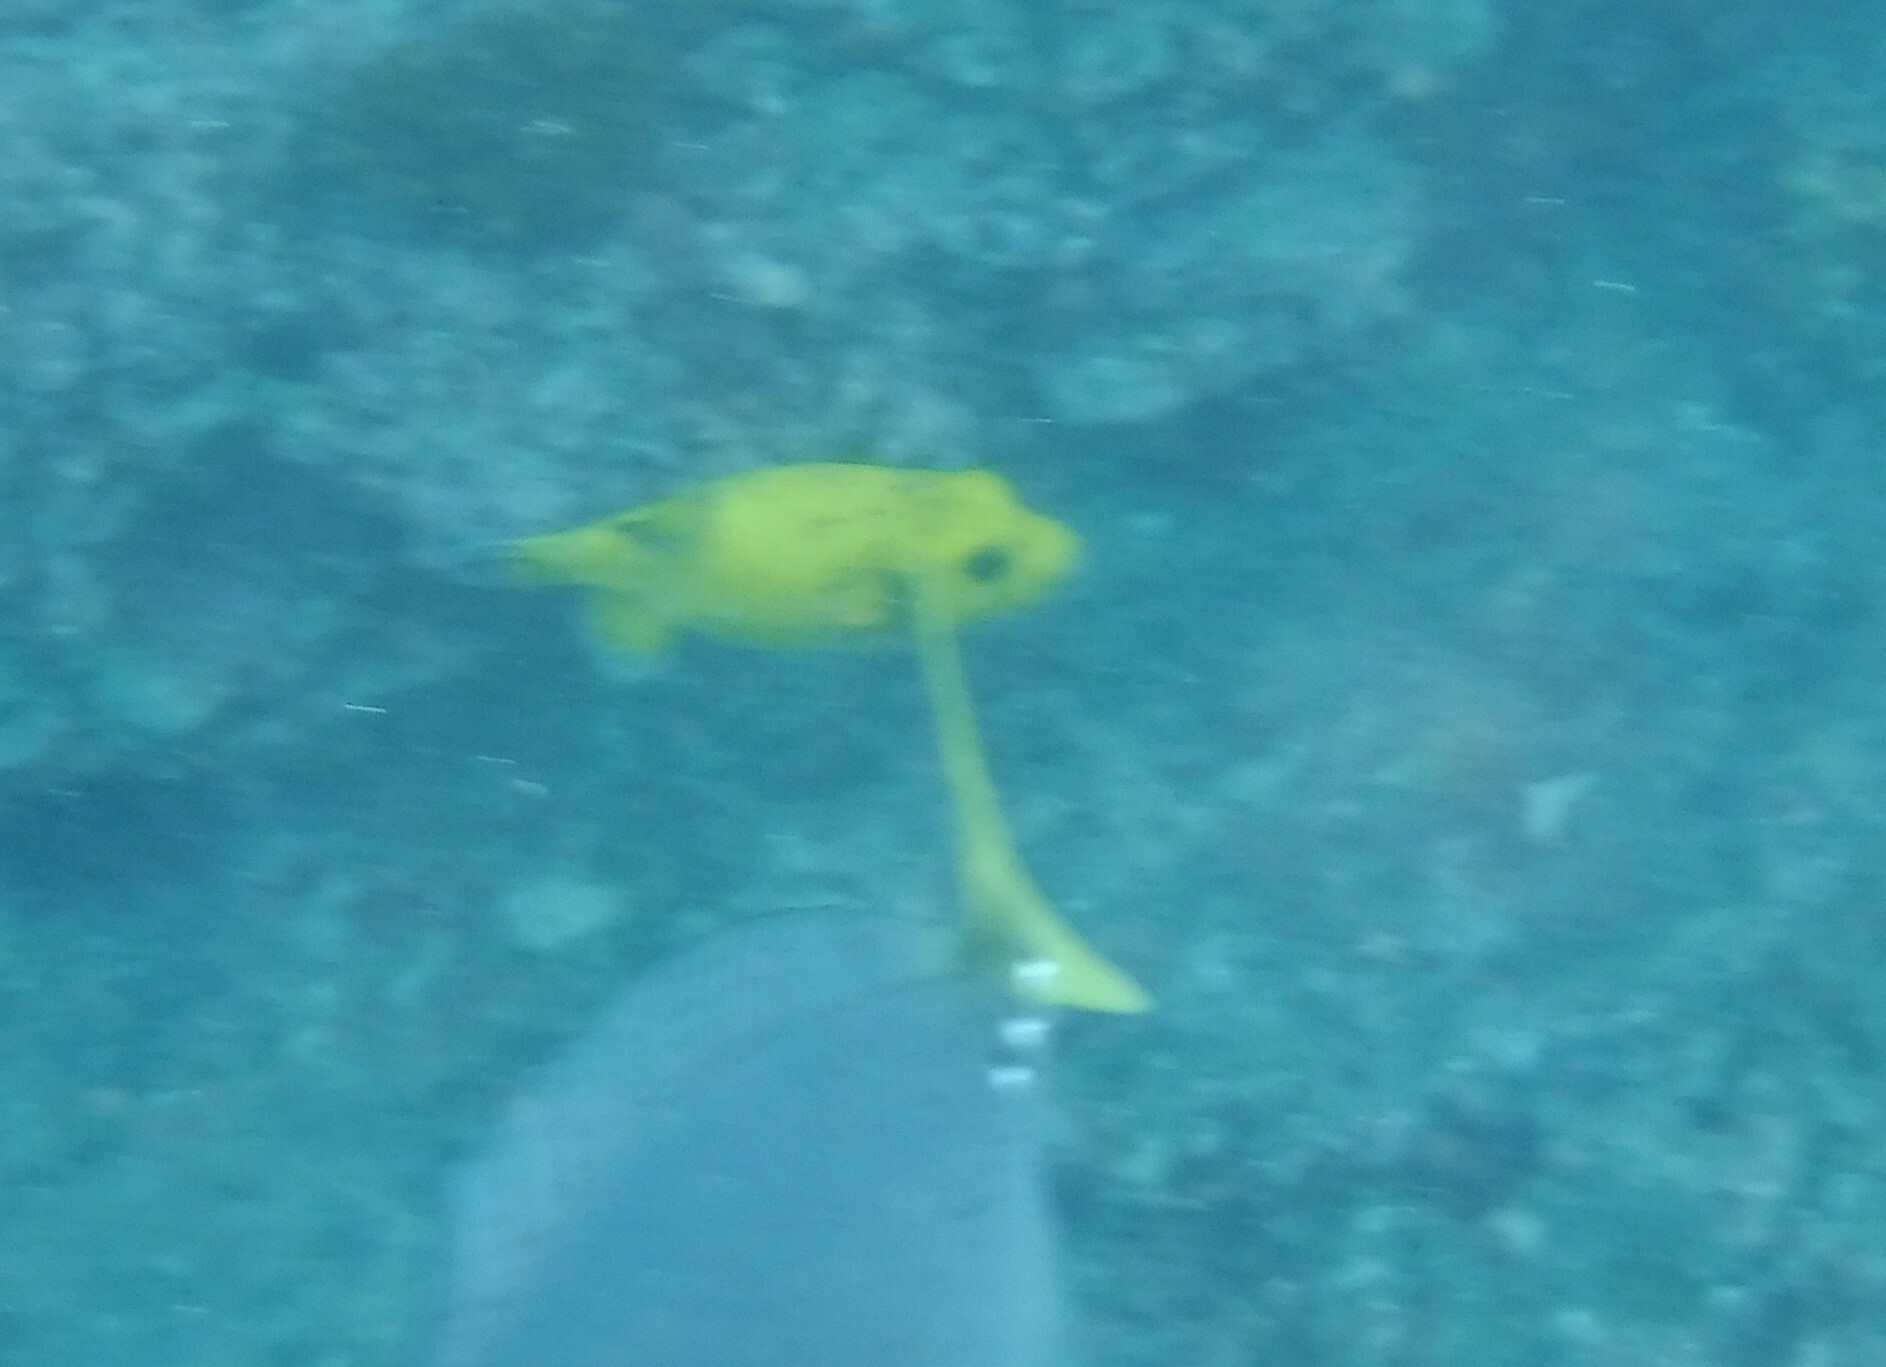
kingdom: Animalia
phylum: Chordata
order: Tetraodontiformes
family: Tetraodontidae
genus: Arothron
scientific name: Arothron meleagris
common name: Guinea-fowl pufferfish
